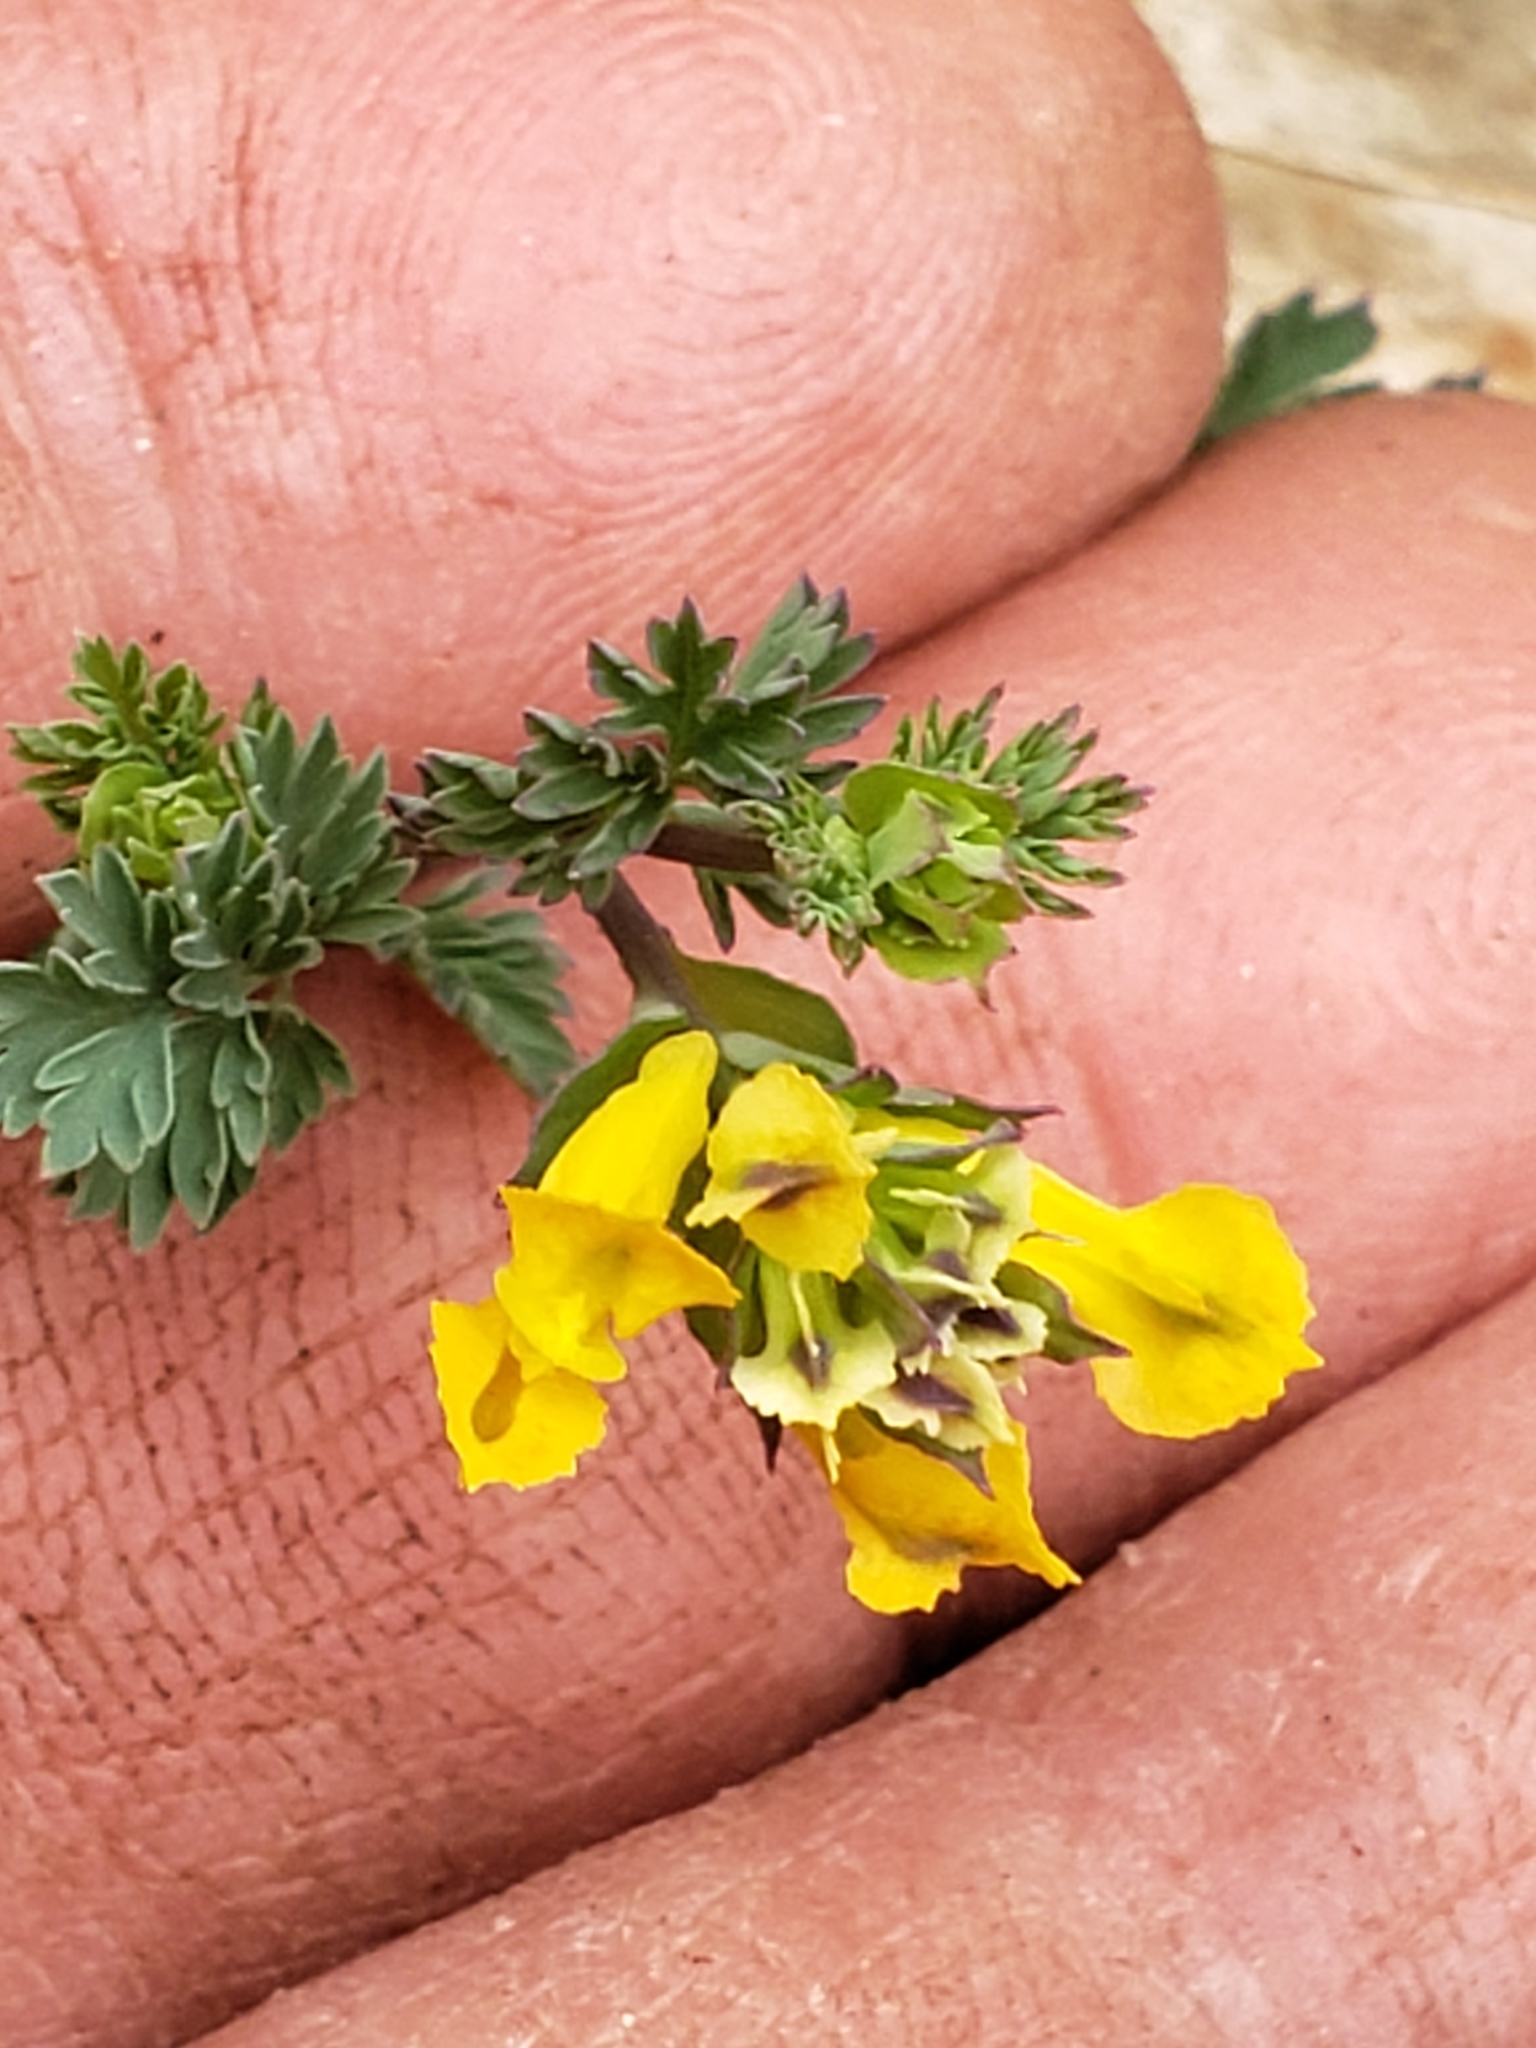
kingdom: Plantae
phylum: Tracheophyta
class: Magnoliopsida
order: Ranunculales
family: Papaveraceae
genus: Corydalis
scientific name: Corydalis flavula
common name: Yellow corydalis
